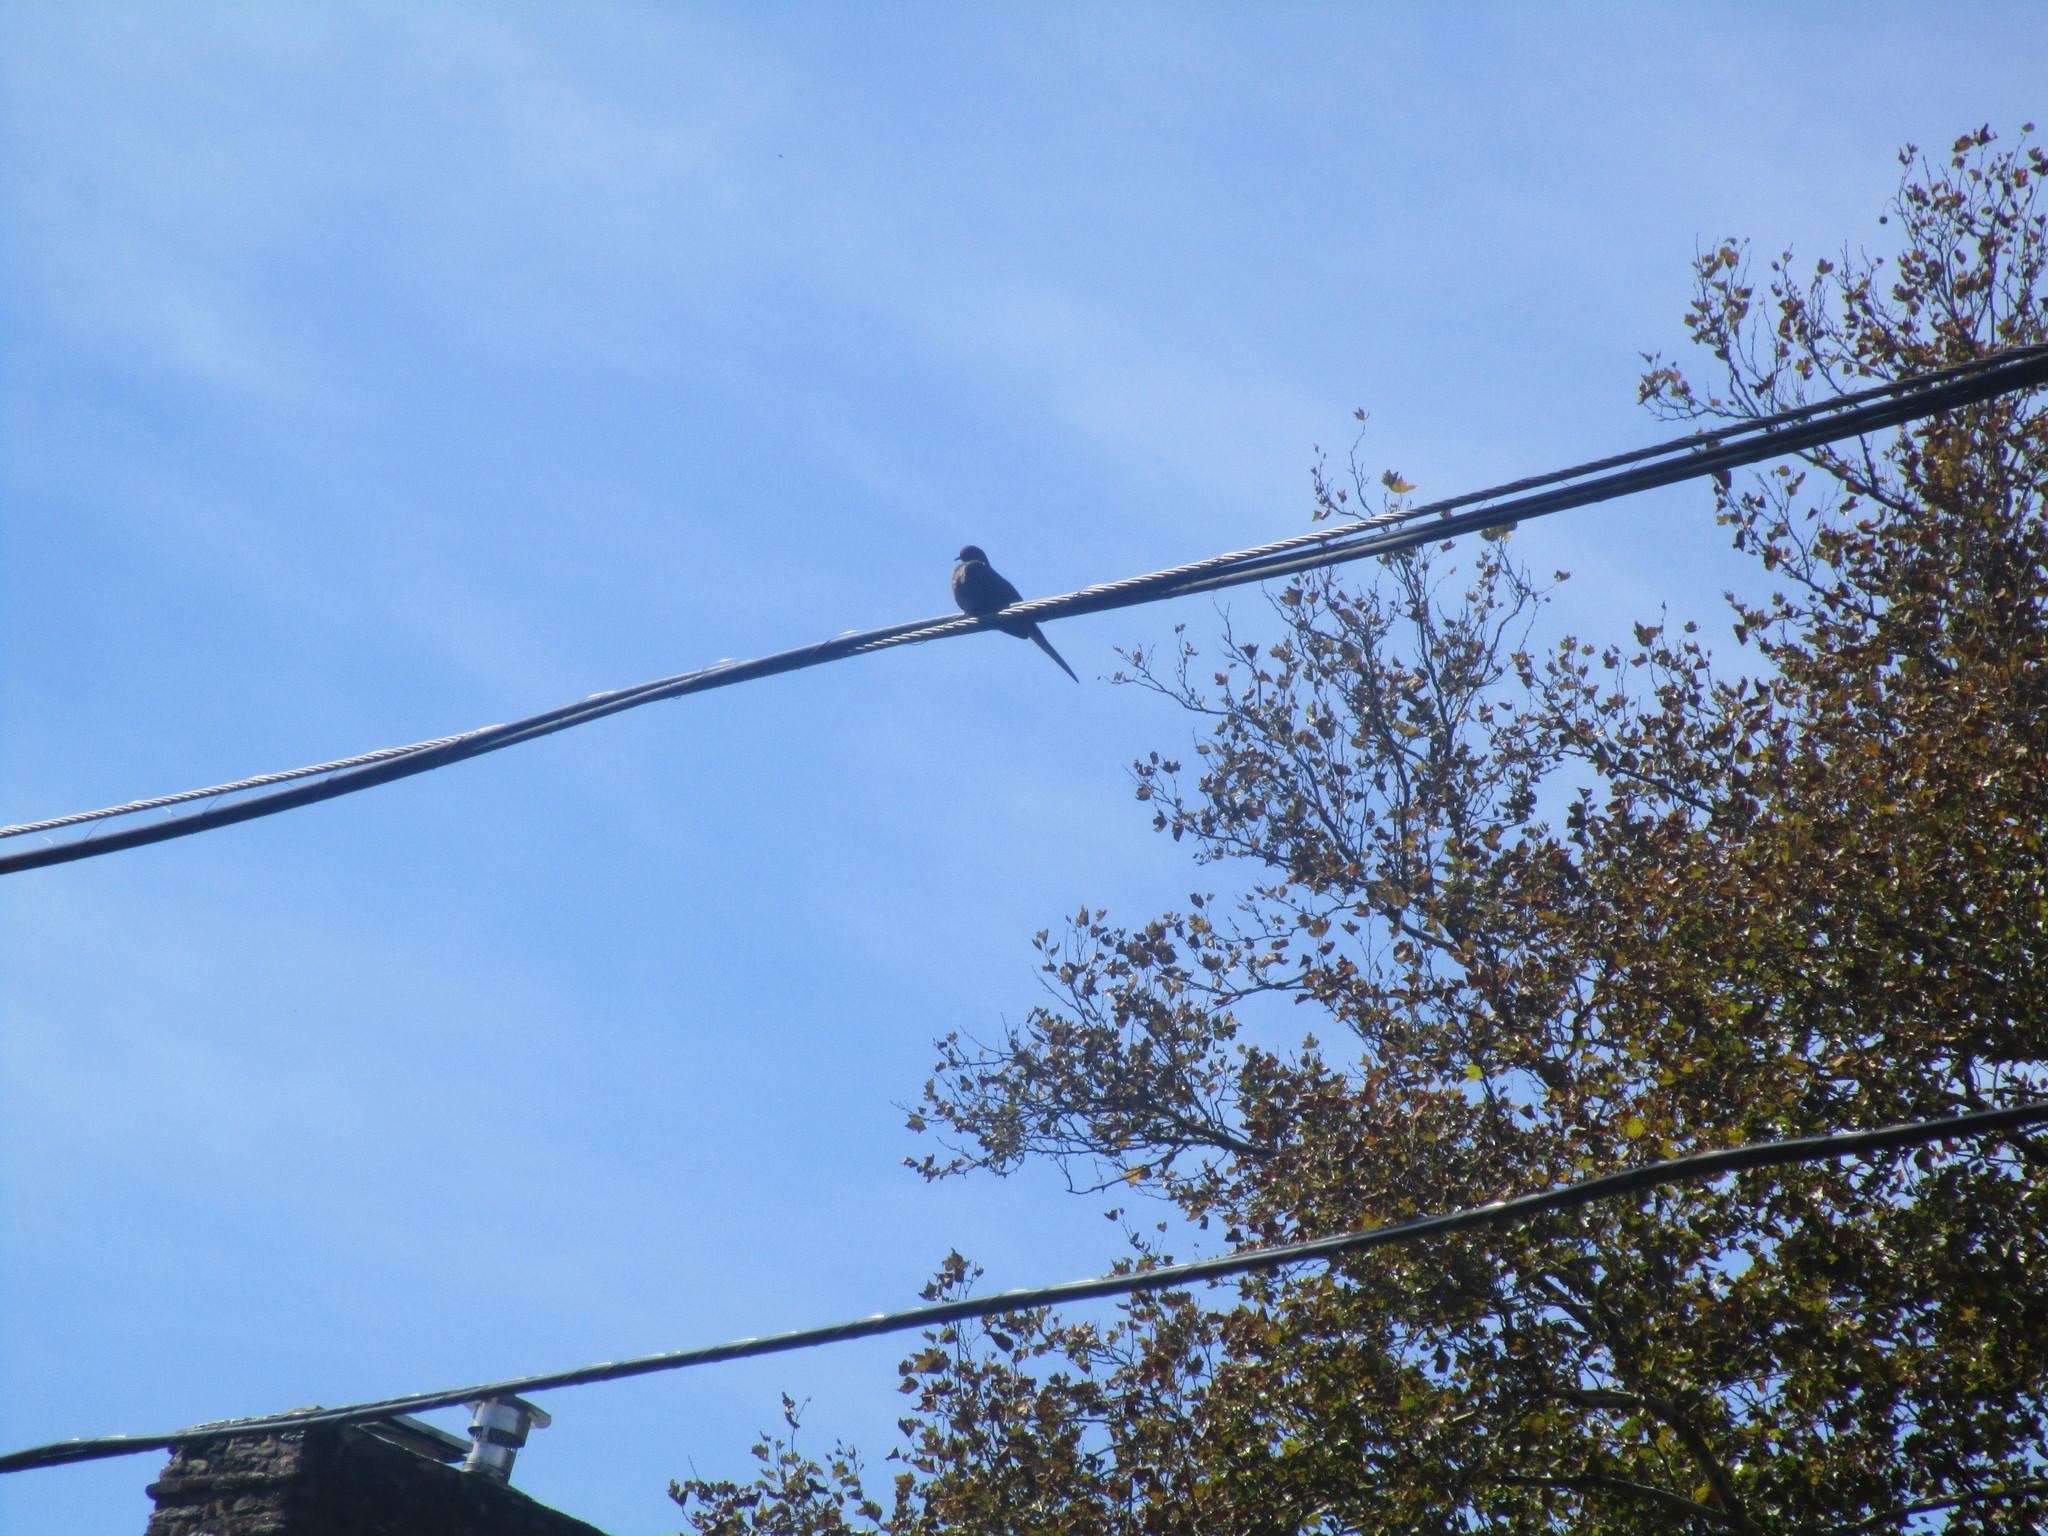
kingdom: Animalia
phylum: Chordata
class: Aves
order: Columbiformes
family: Columbidae
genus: Zenaida
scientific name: Zenaida macroura
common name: Mourning dove
